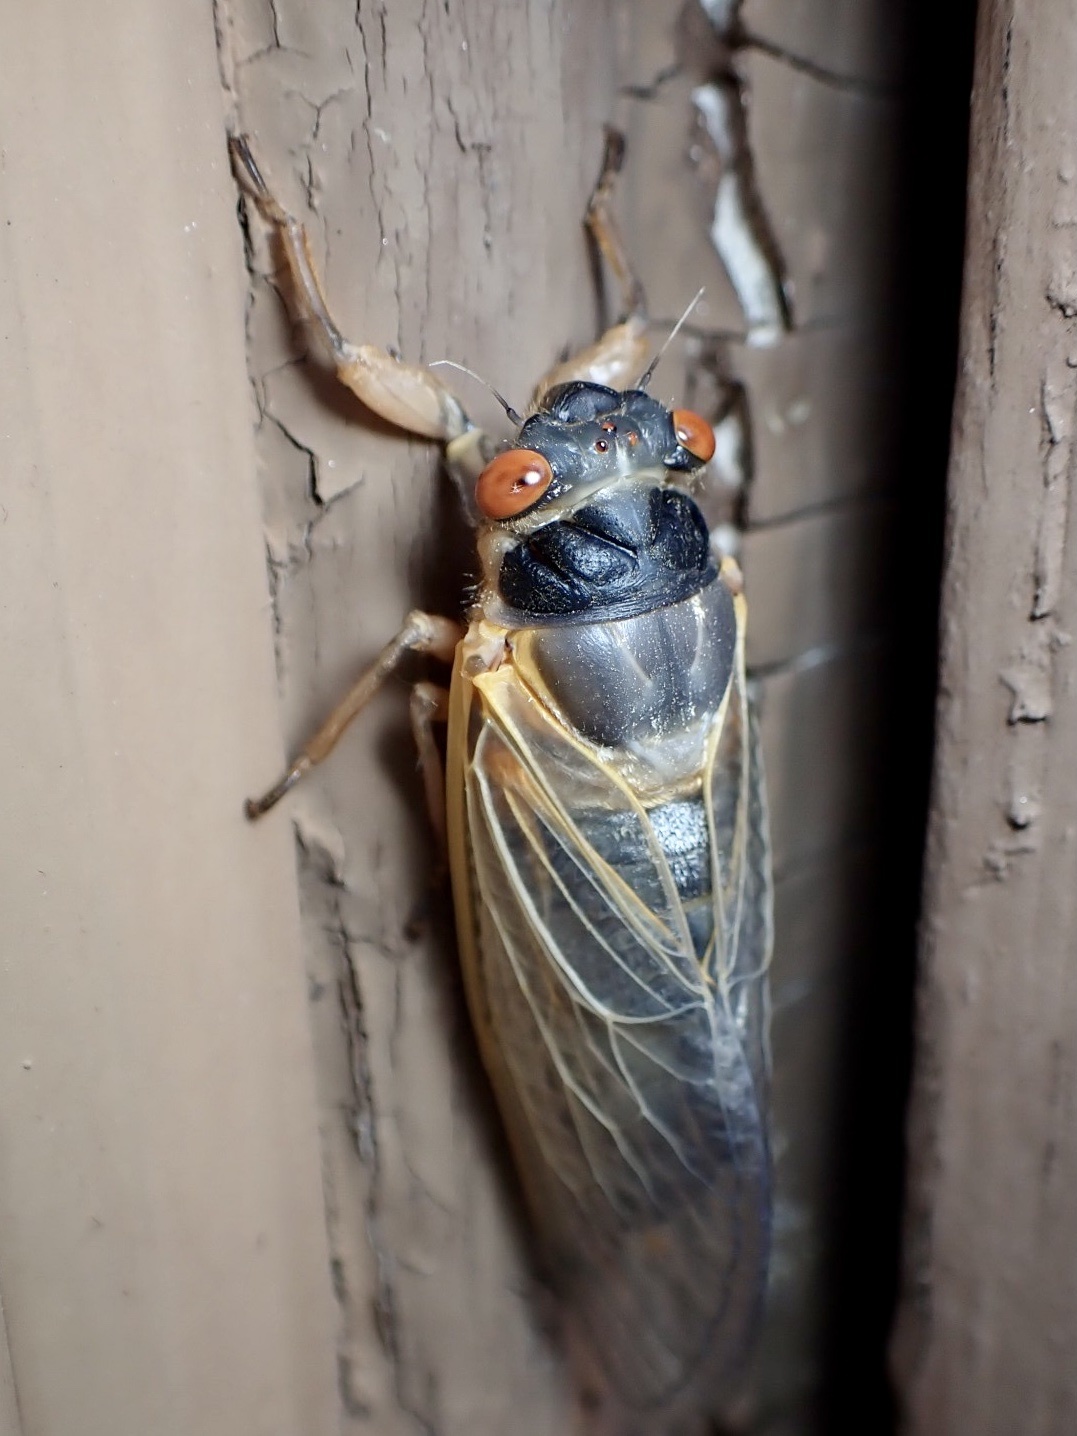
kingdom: Animalia
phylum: Arthropoda
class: Insecta
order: Hemiptera
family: Cicadidae
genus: Magicicada
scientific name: Magicicada
